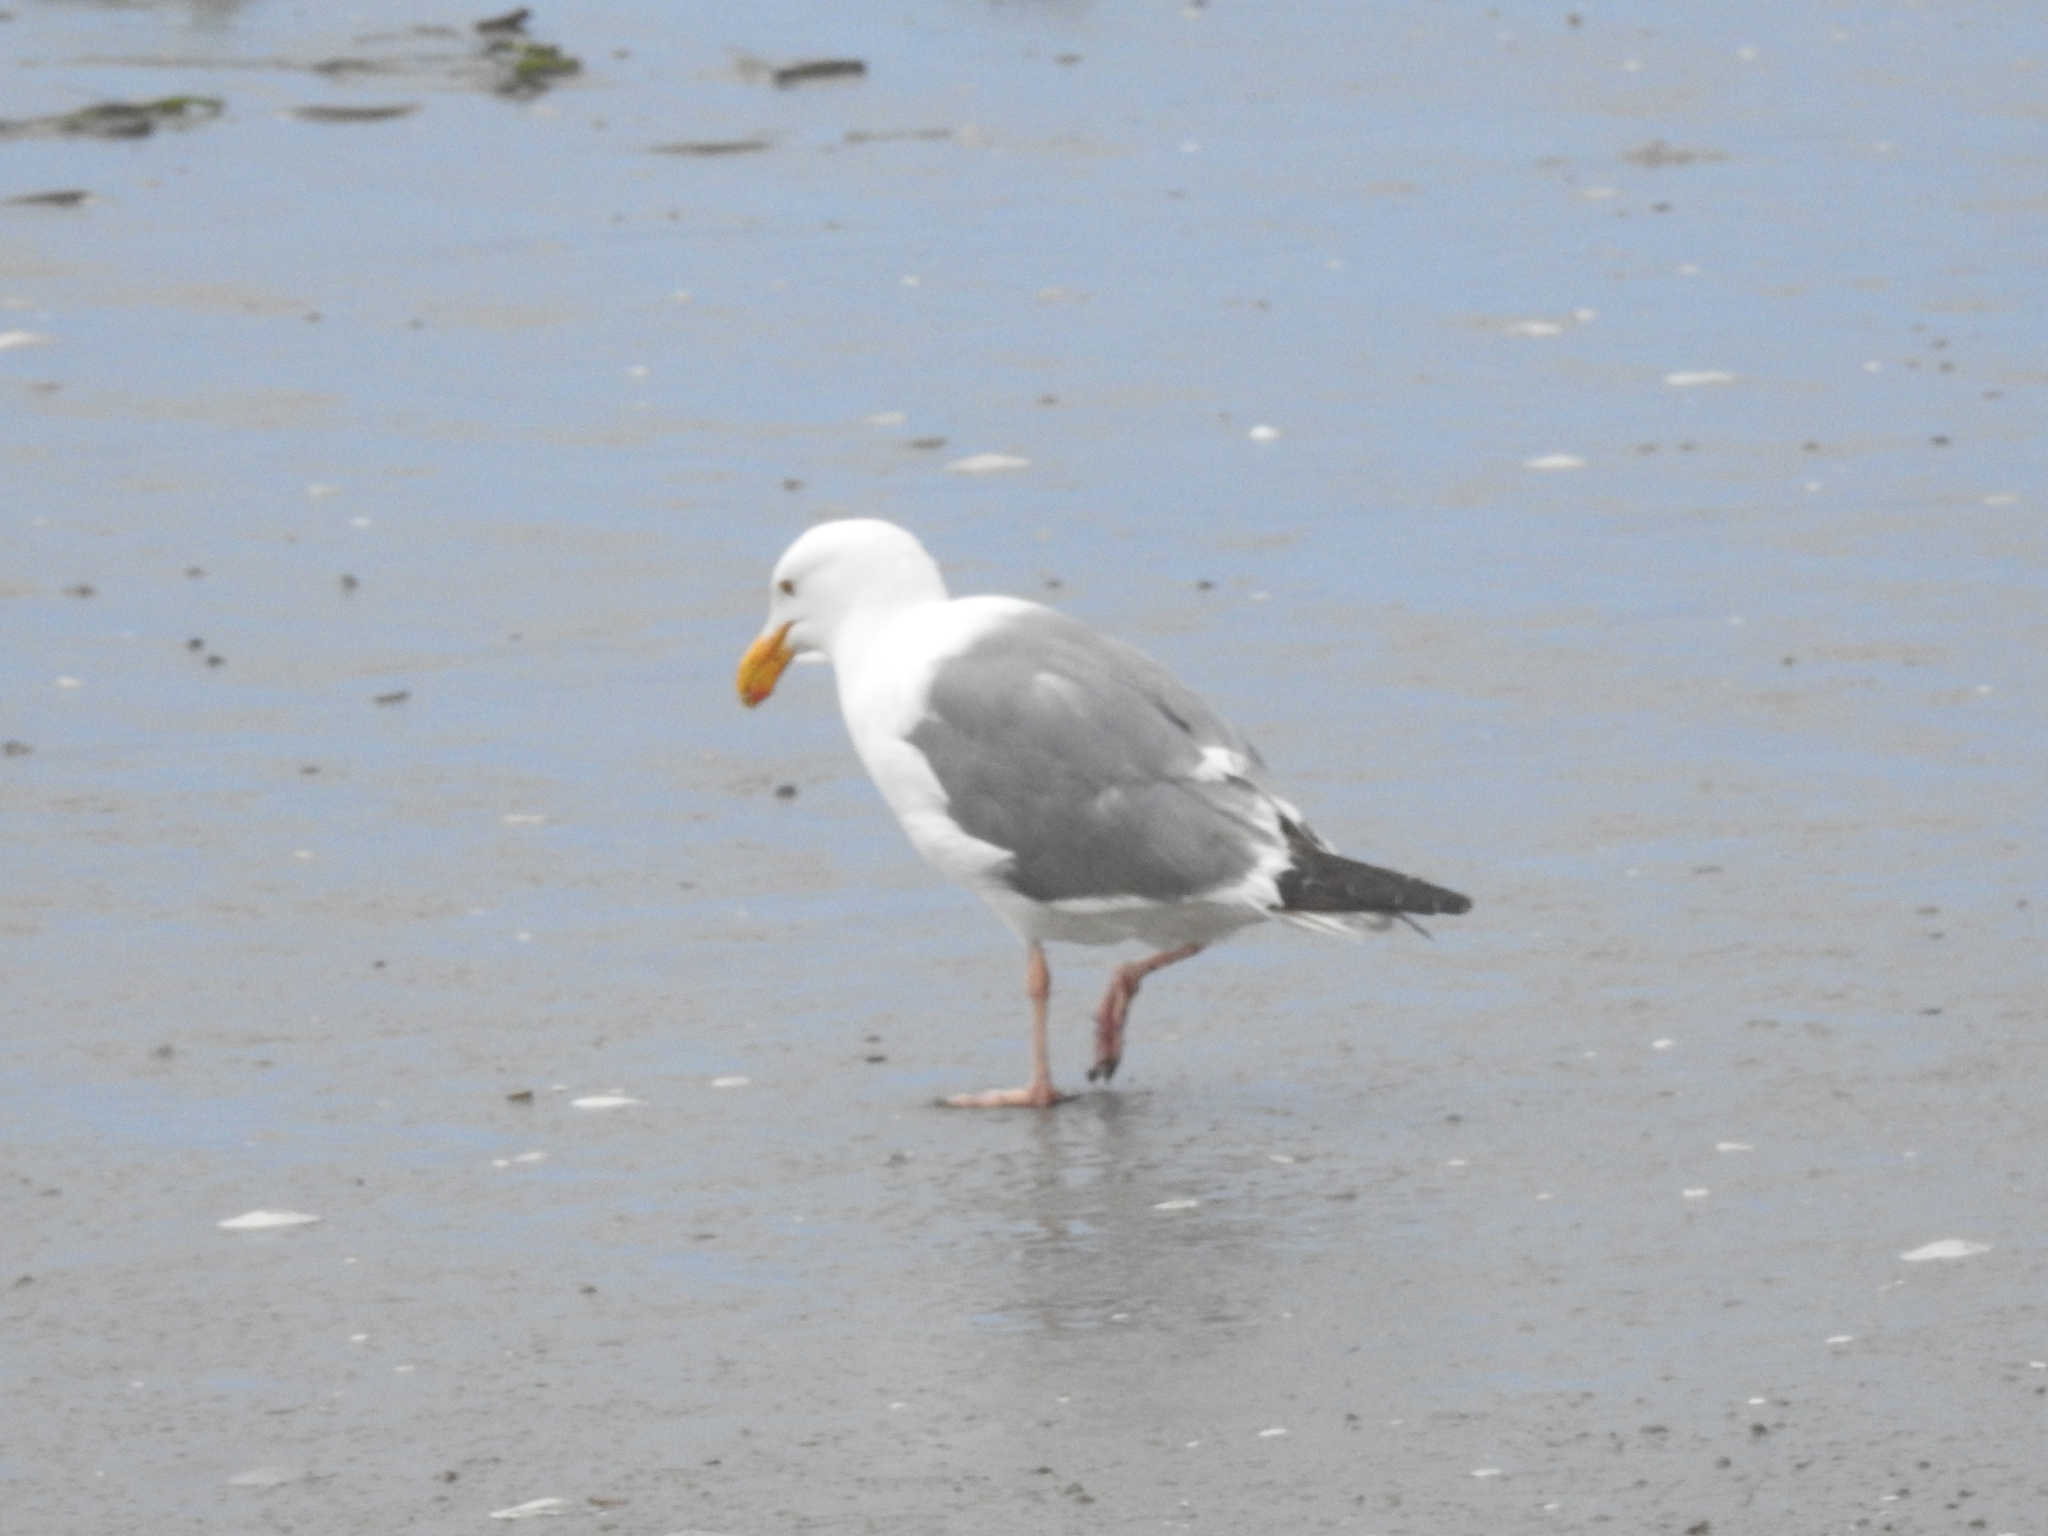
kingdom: Animalia
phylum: Chordata
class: Aves
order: Charadriiformes
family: Laridae
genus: Larus
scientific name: Larus occidentalis
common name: Western gull
